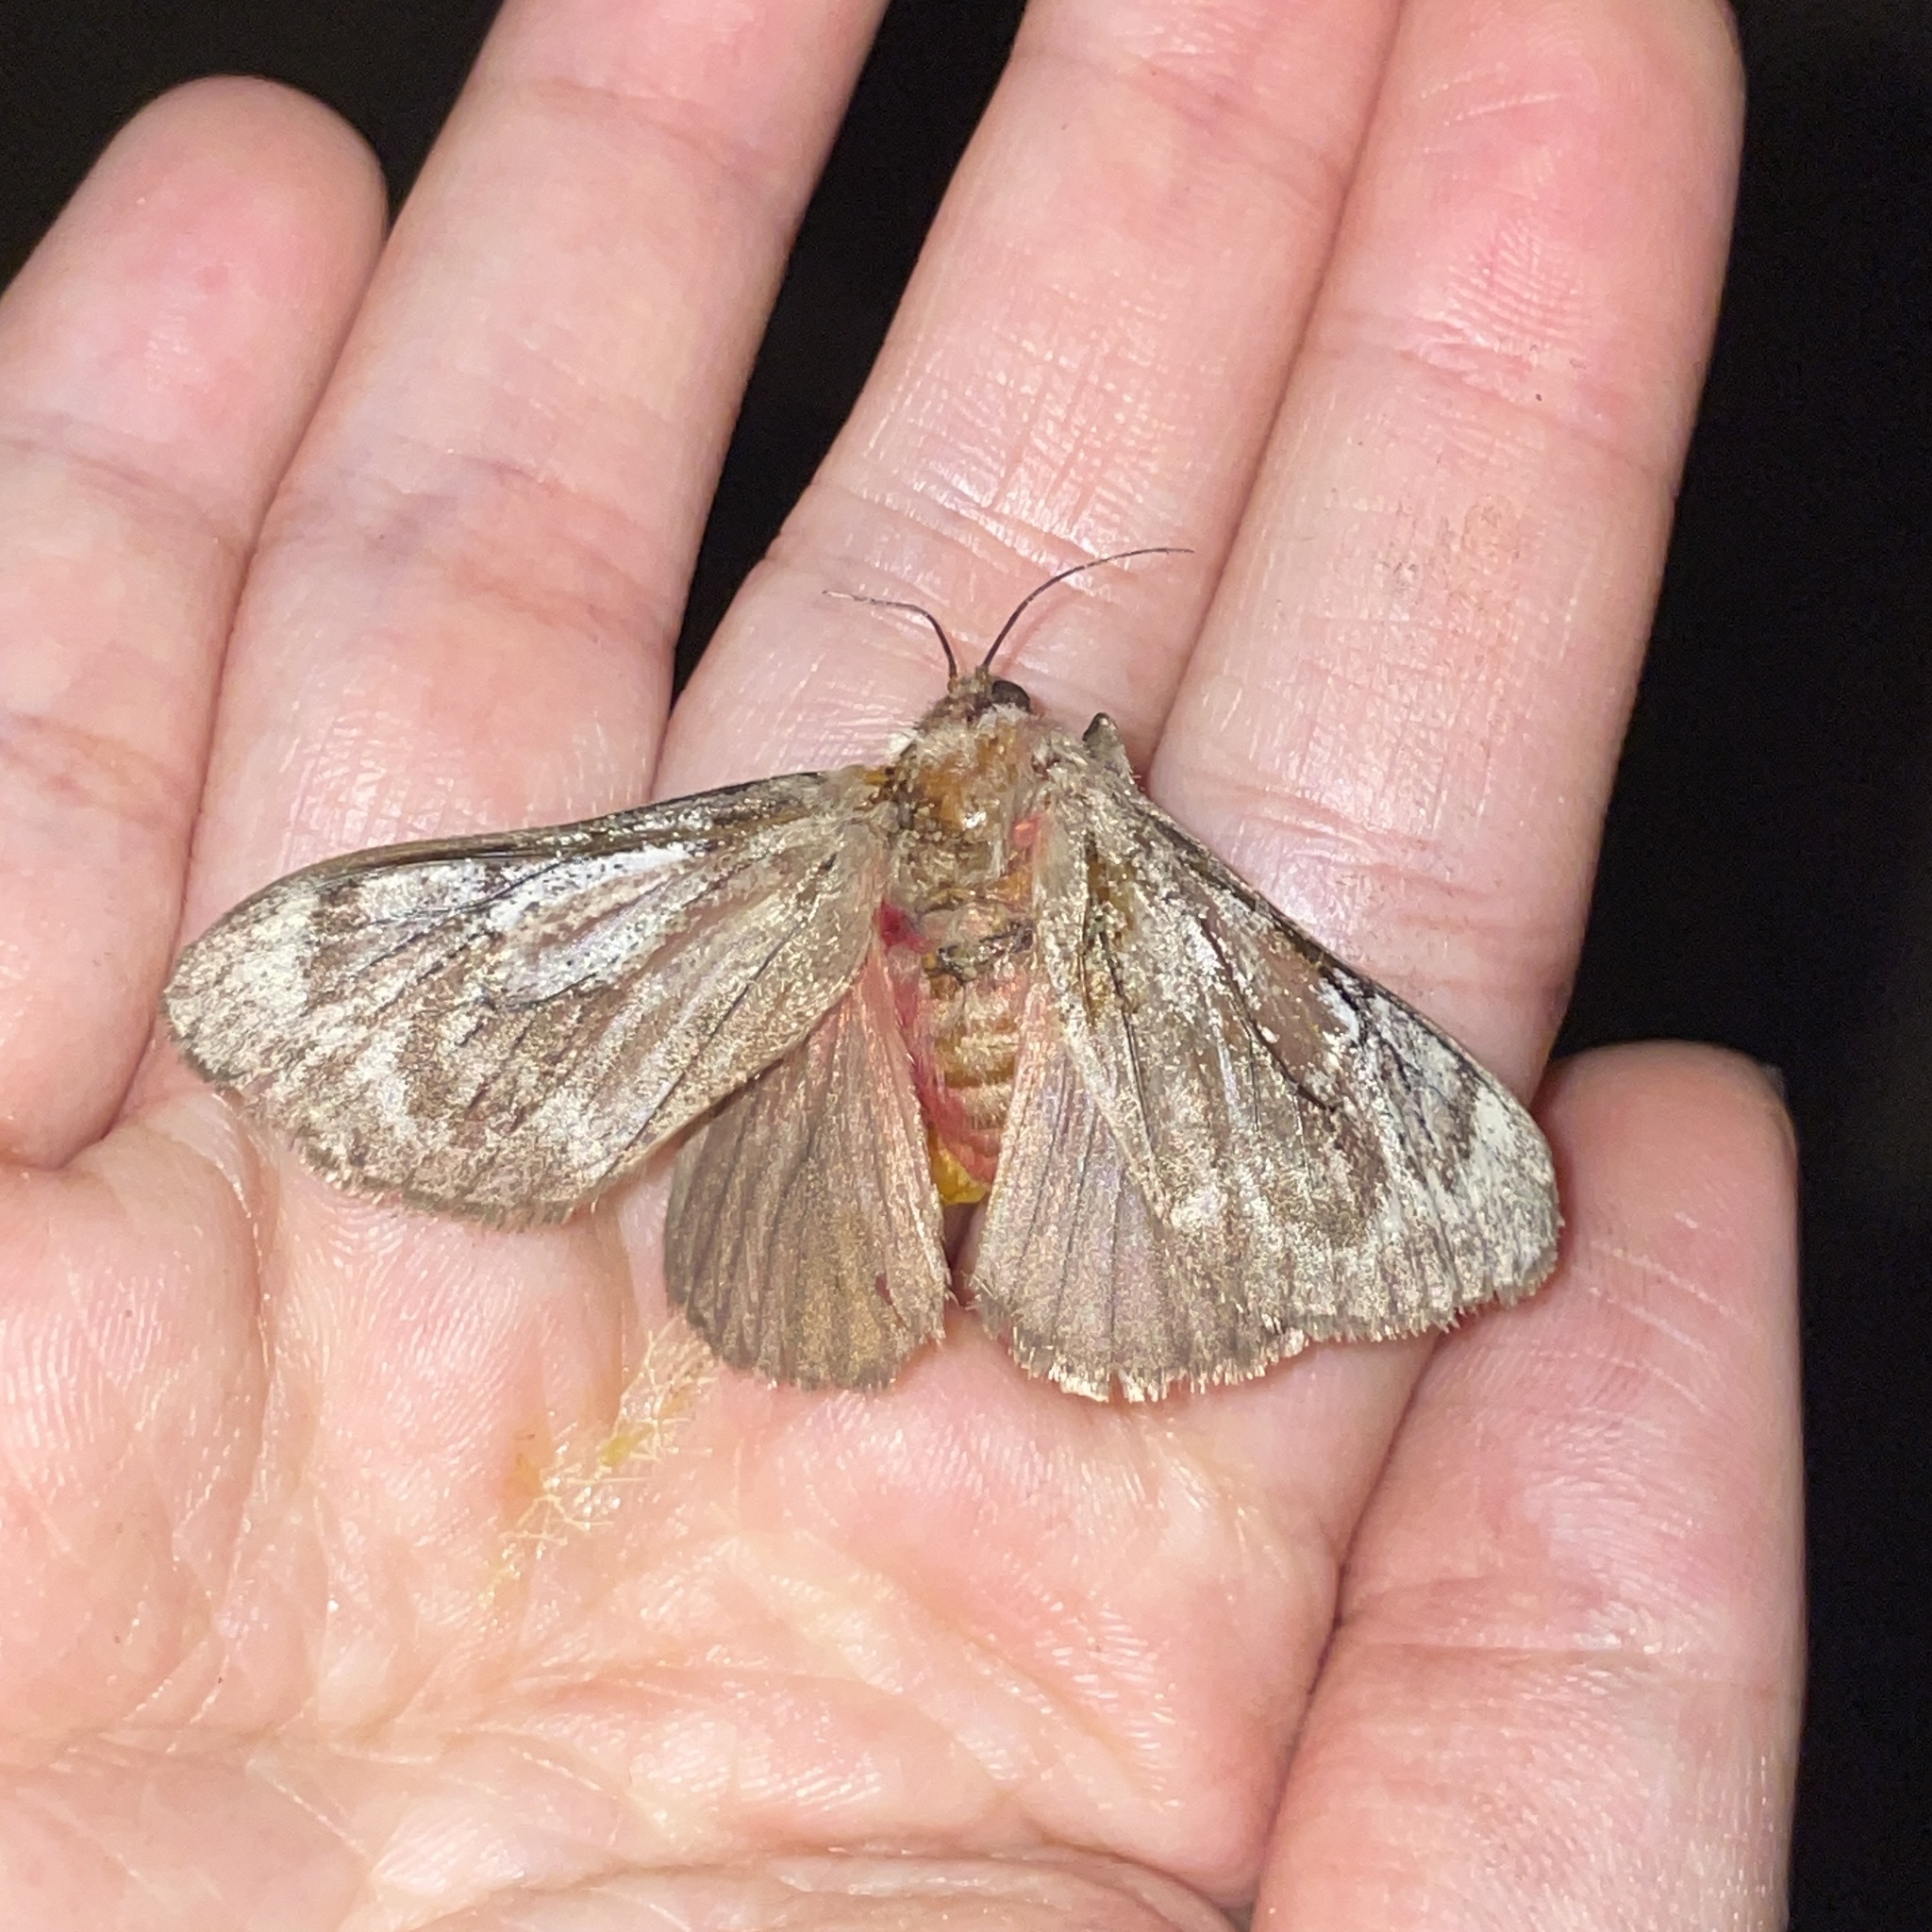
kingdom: Animalia
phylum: Arthropoda
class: Insecta
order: Lepidoptera
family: Aididae
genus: Aidos
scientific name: Aidos amanda
